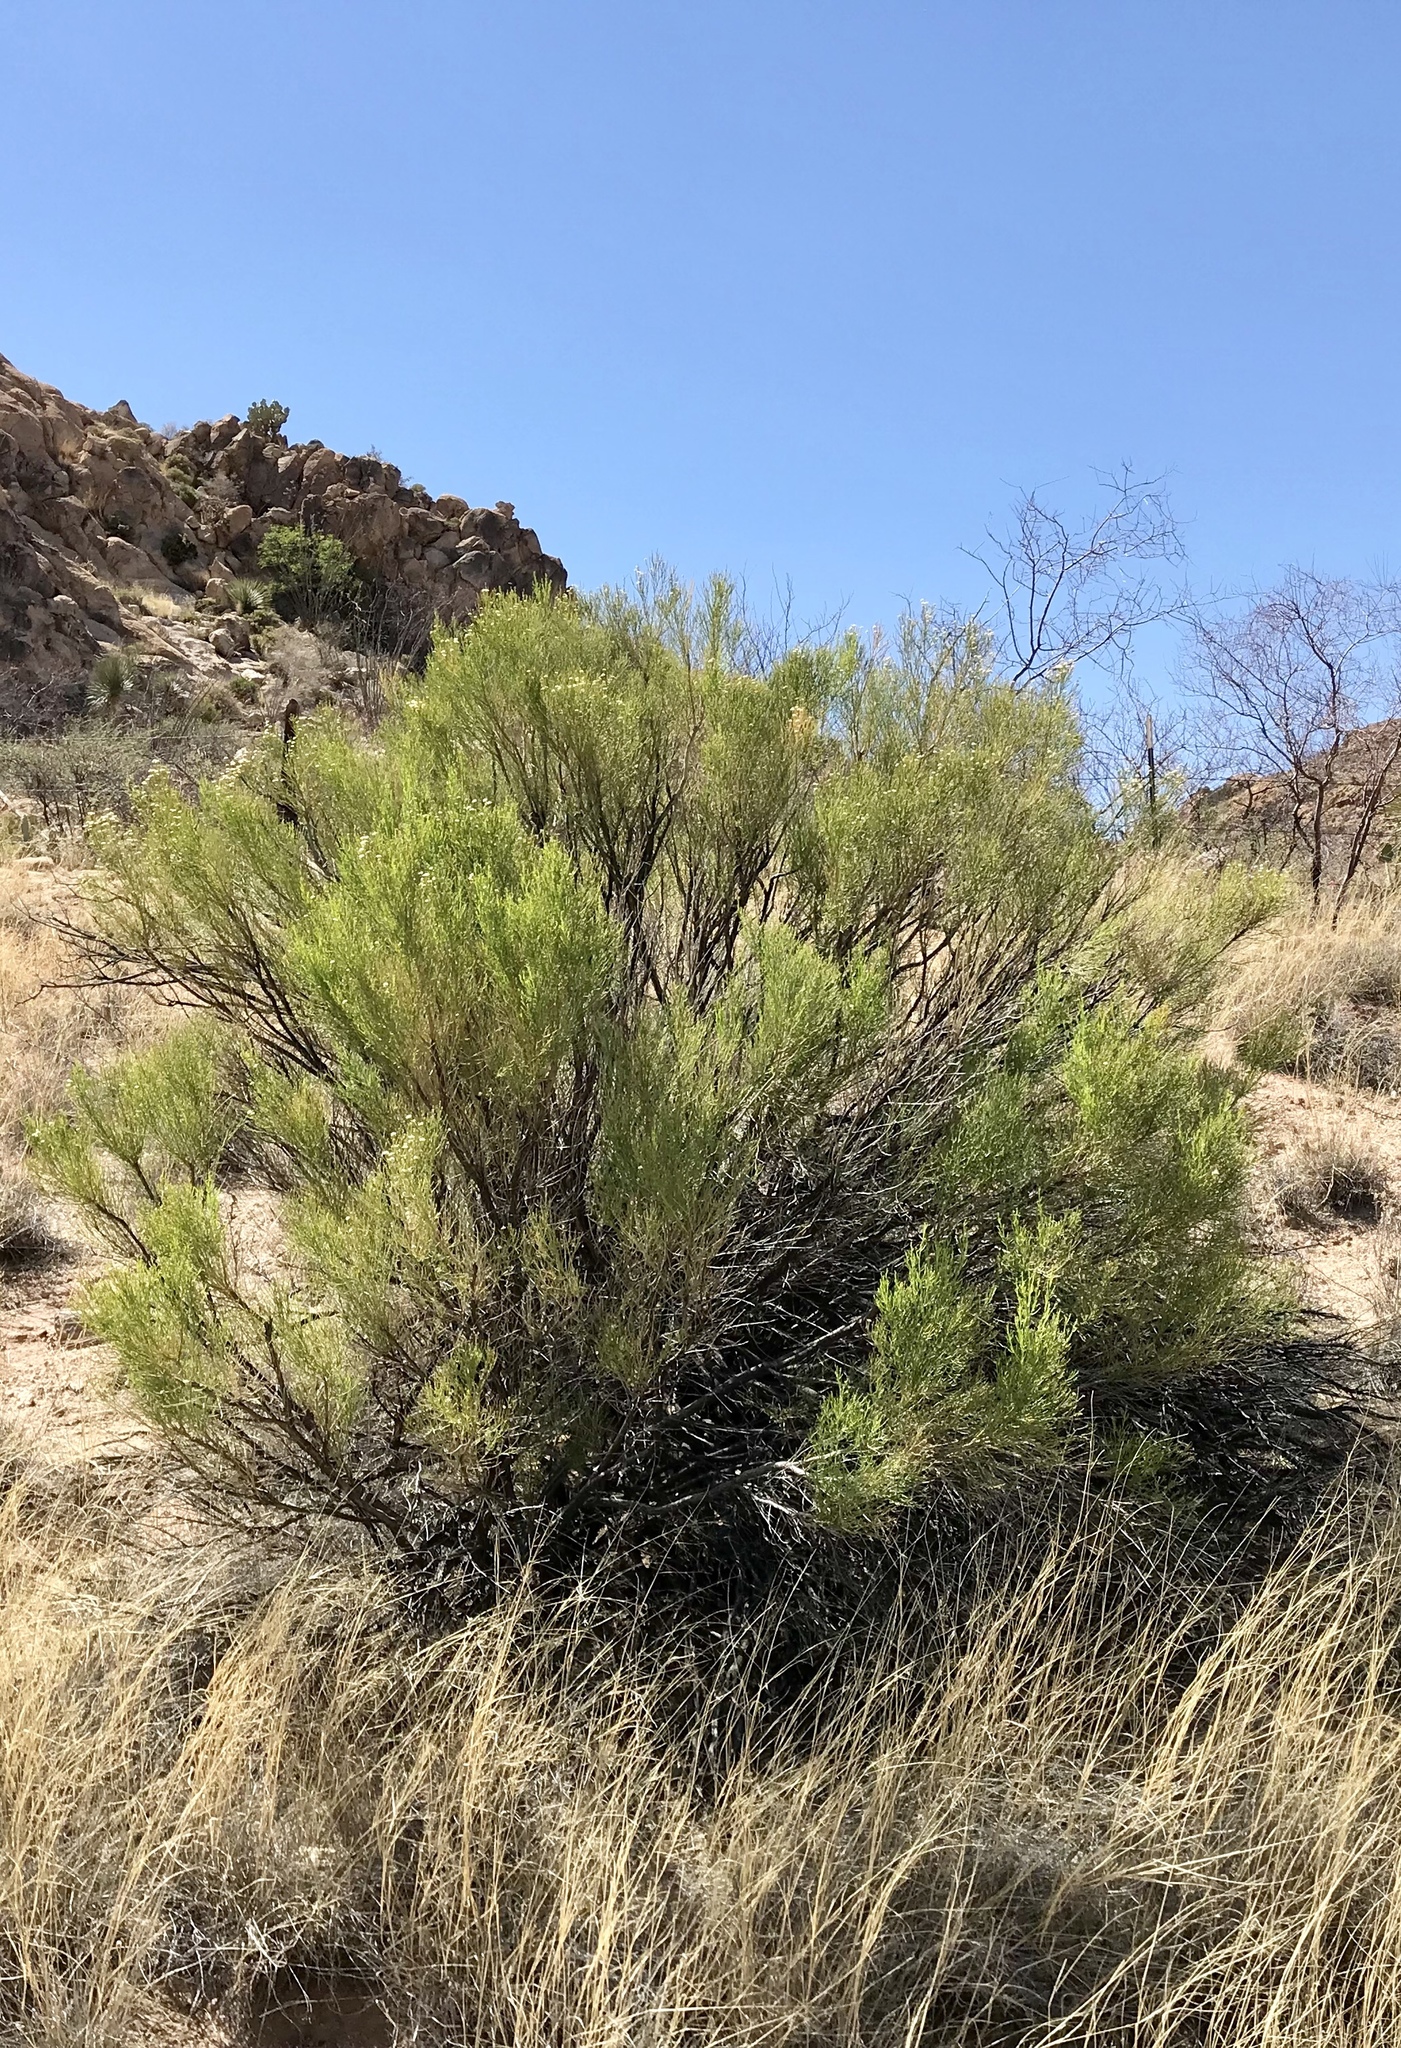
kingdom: Plantae
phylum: Tracheophyta
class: Magnoliopsida
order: Asterales
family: Asteraceae
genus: Baccharis
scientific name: Baccharis sarothroides
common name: Desert-broom
